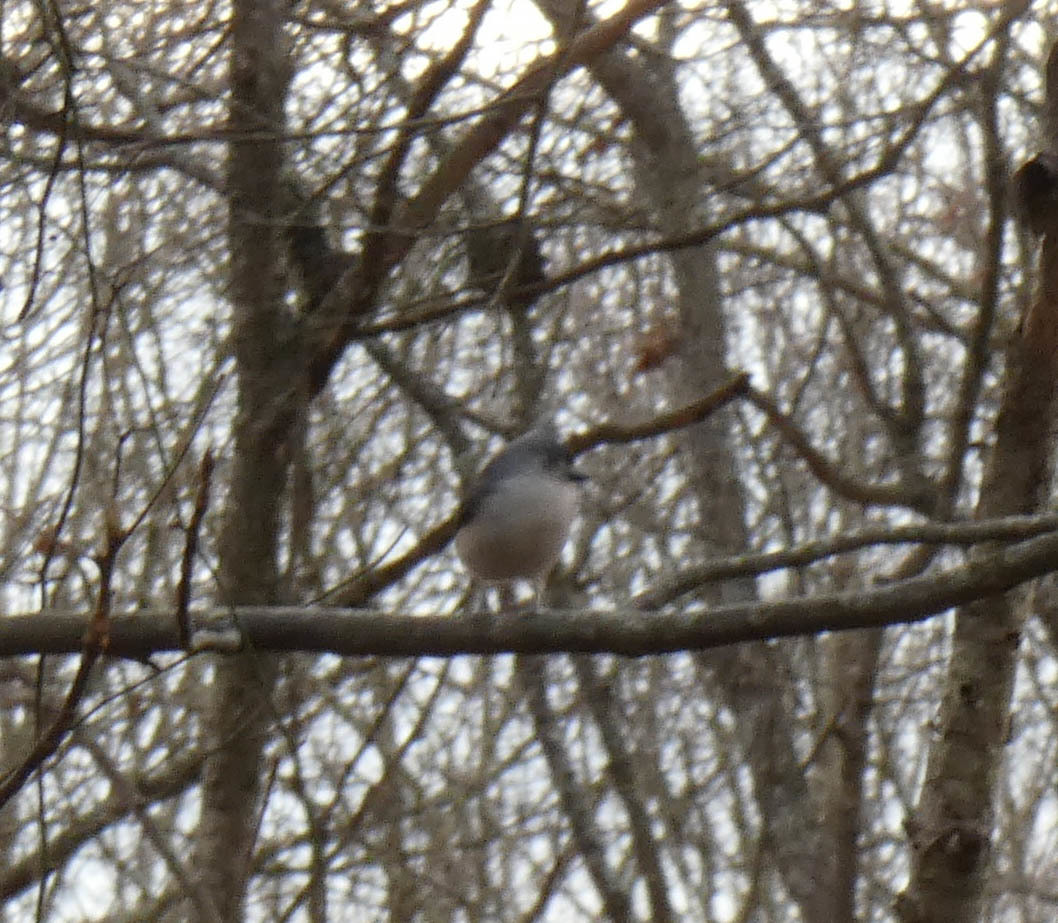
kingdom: Animalia
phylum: Chordata
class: Aves
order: Passeriformes
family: Paridae
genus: Baeolophus
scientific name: Baeolophus bicolor
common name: Tufted titmouse
